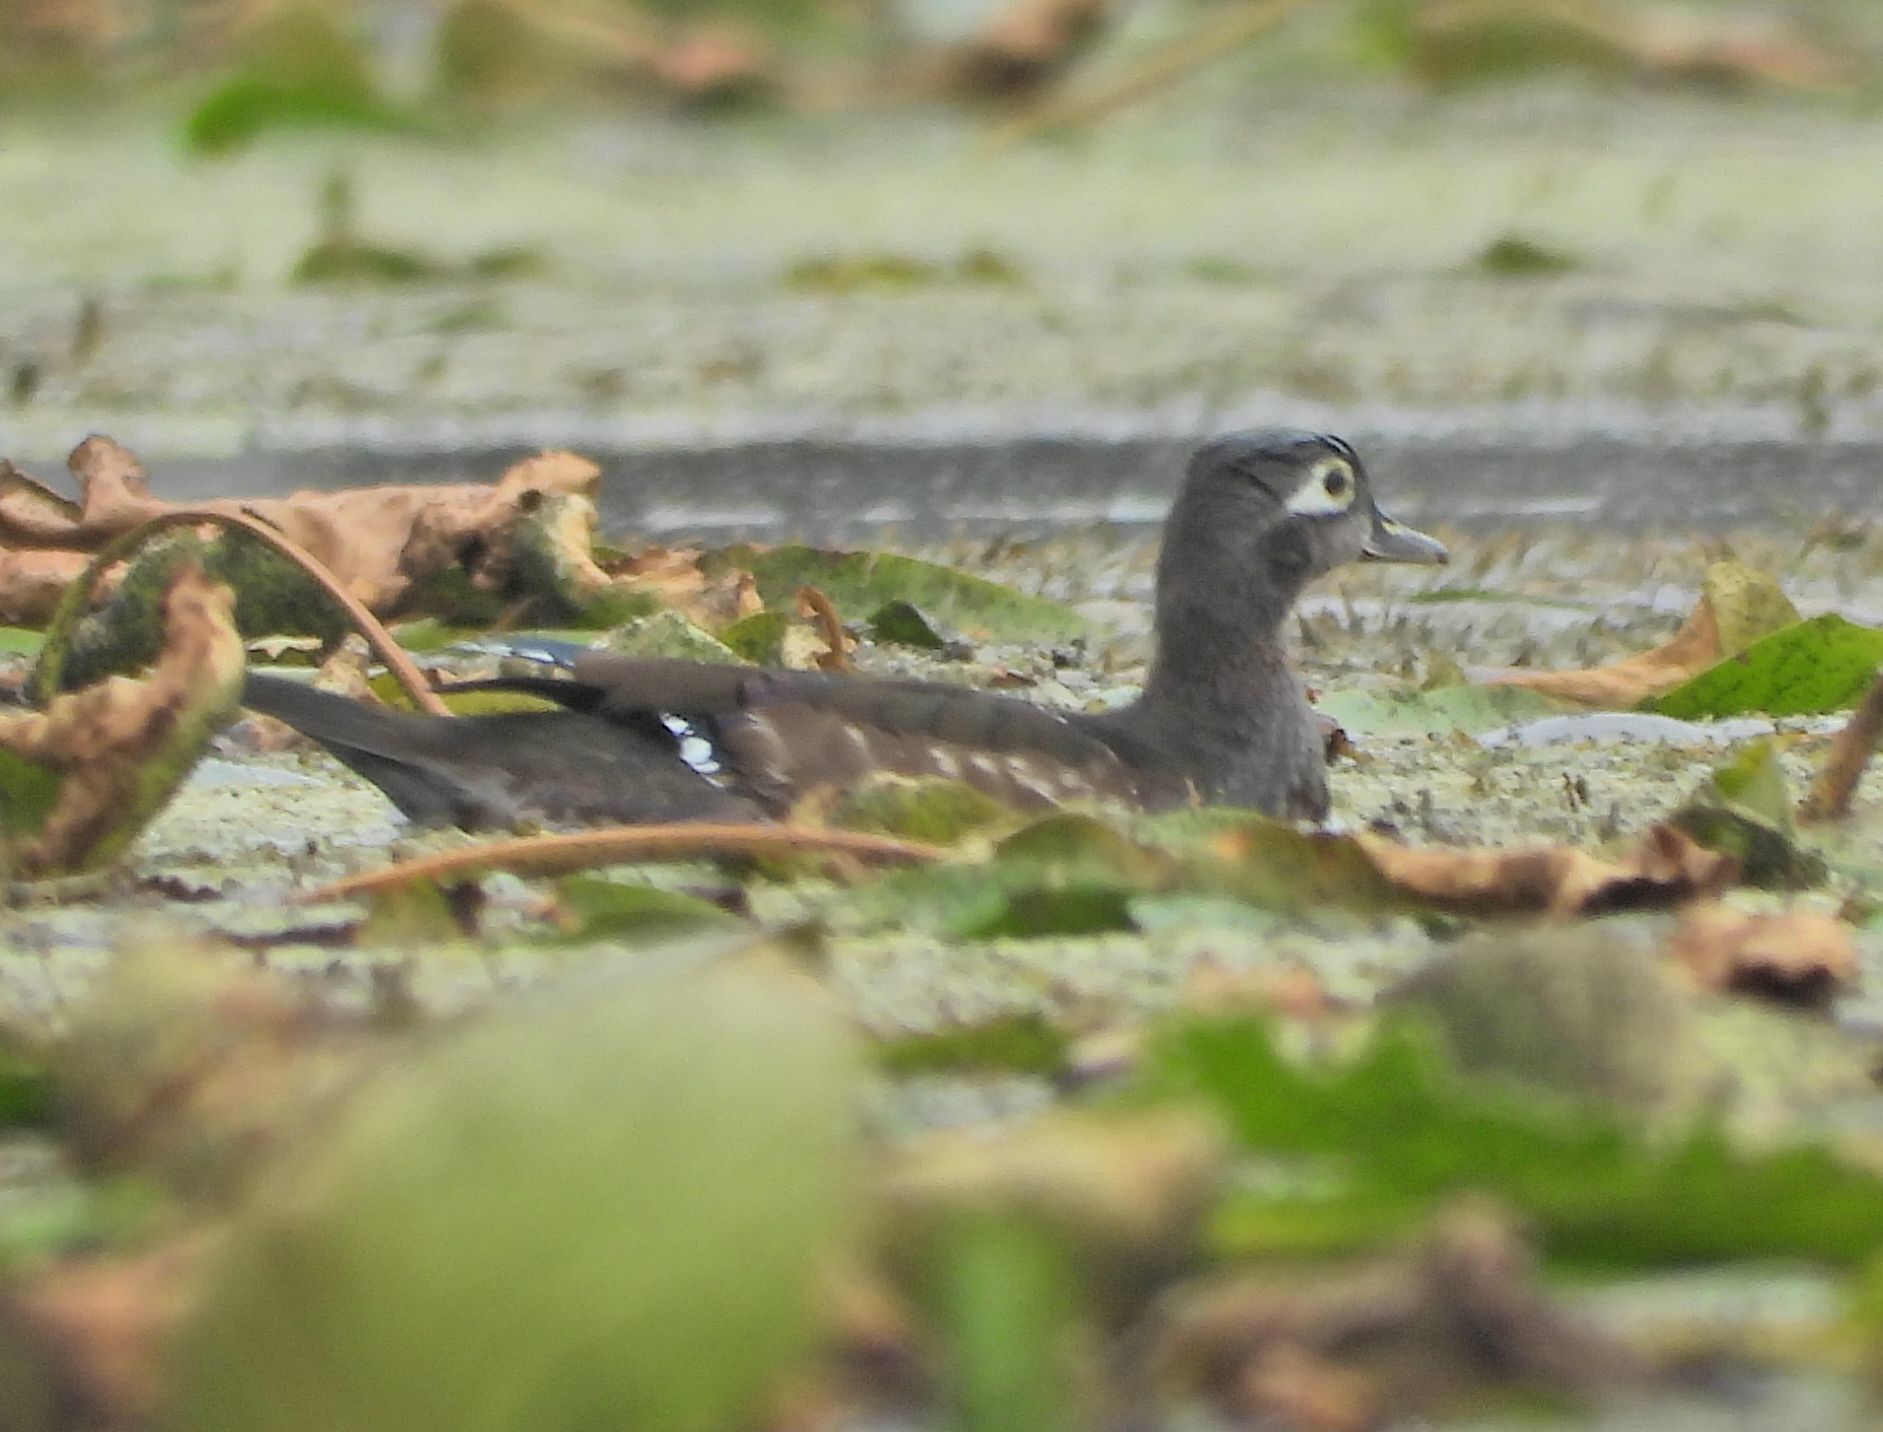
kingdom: Animalia
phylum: Chordata
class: Aves
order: Anseriformes
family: Anatidae
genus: Aix
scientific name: Aix sponsa
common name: Wood duck
